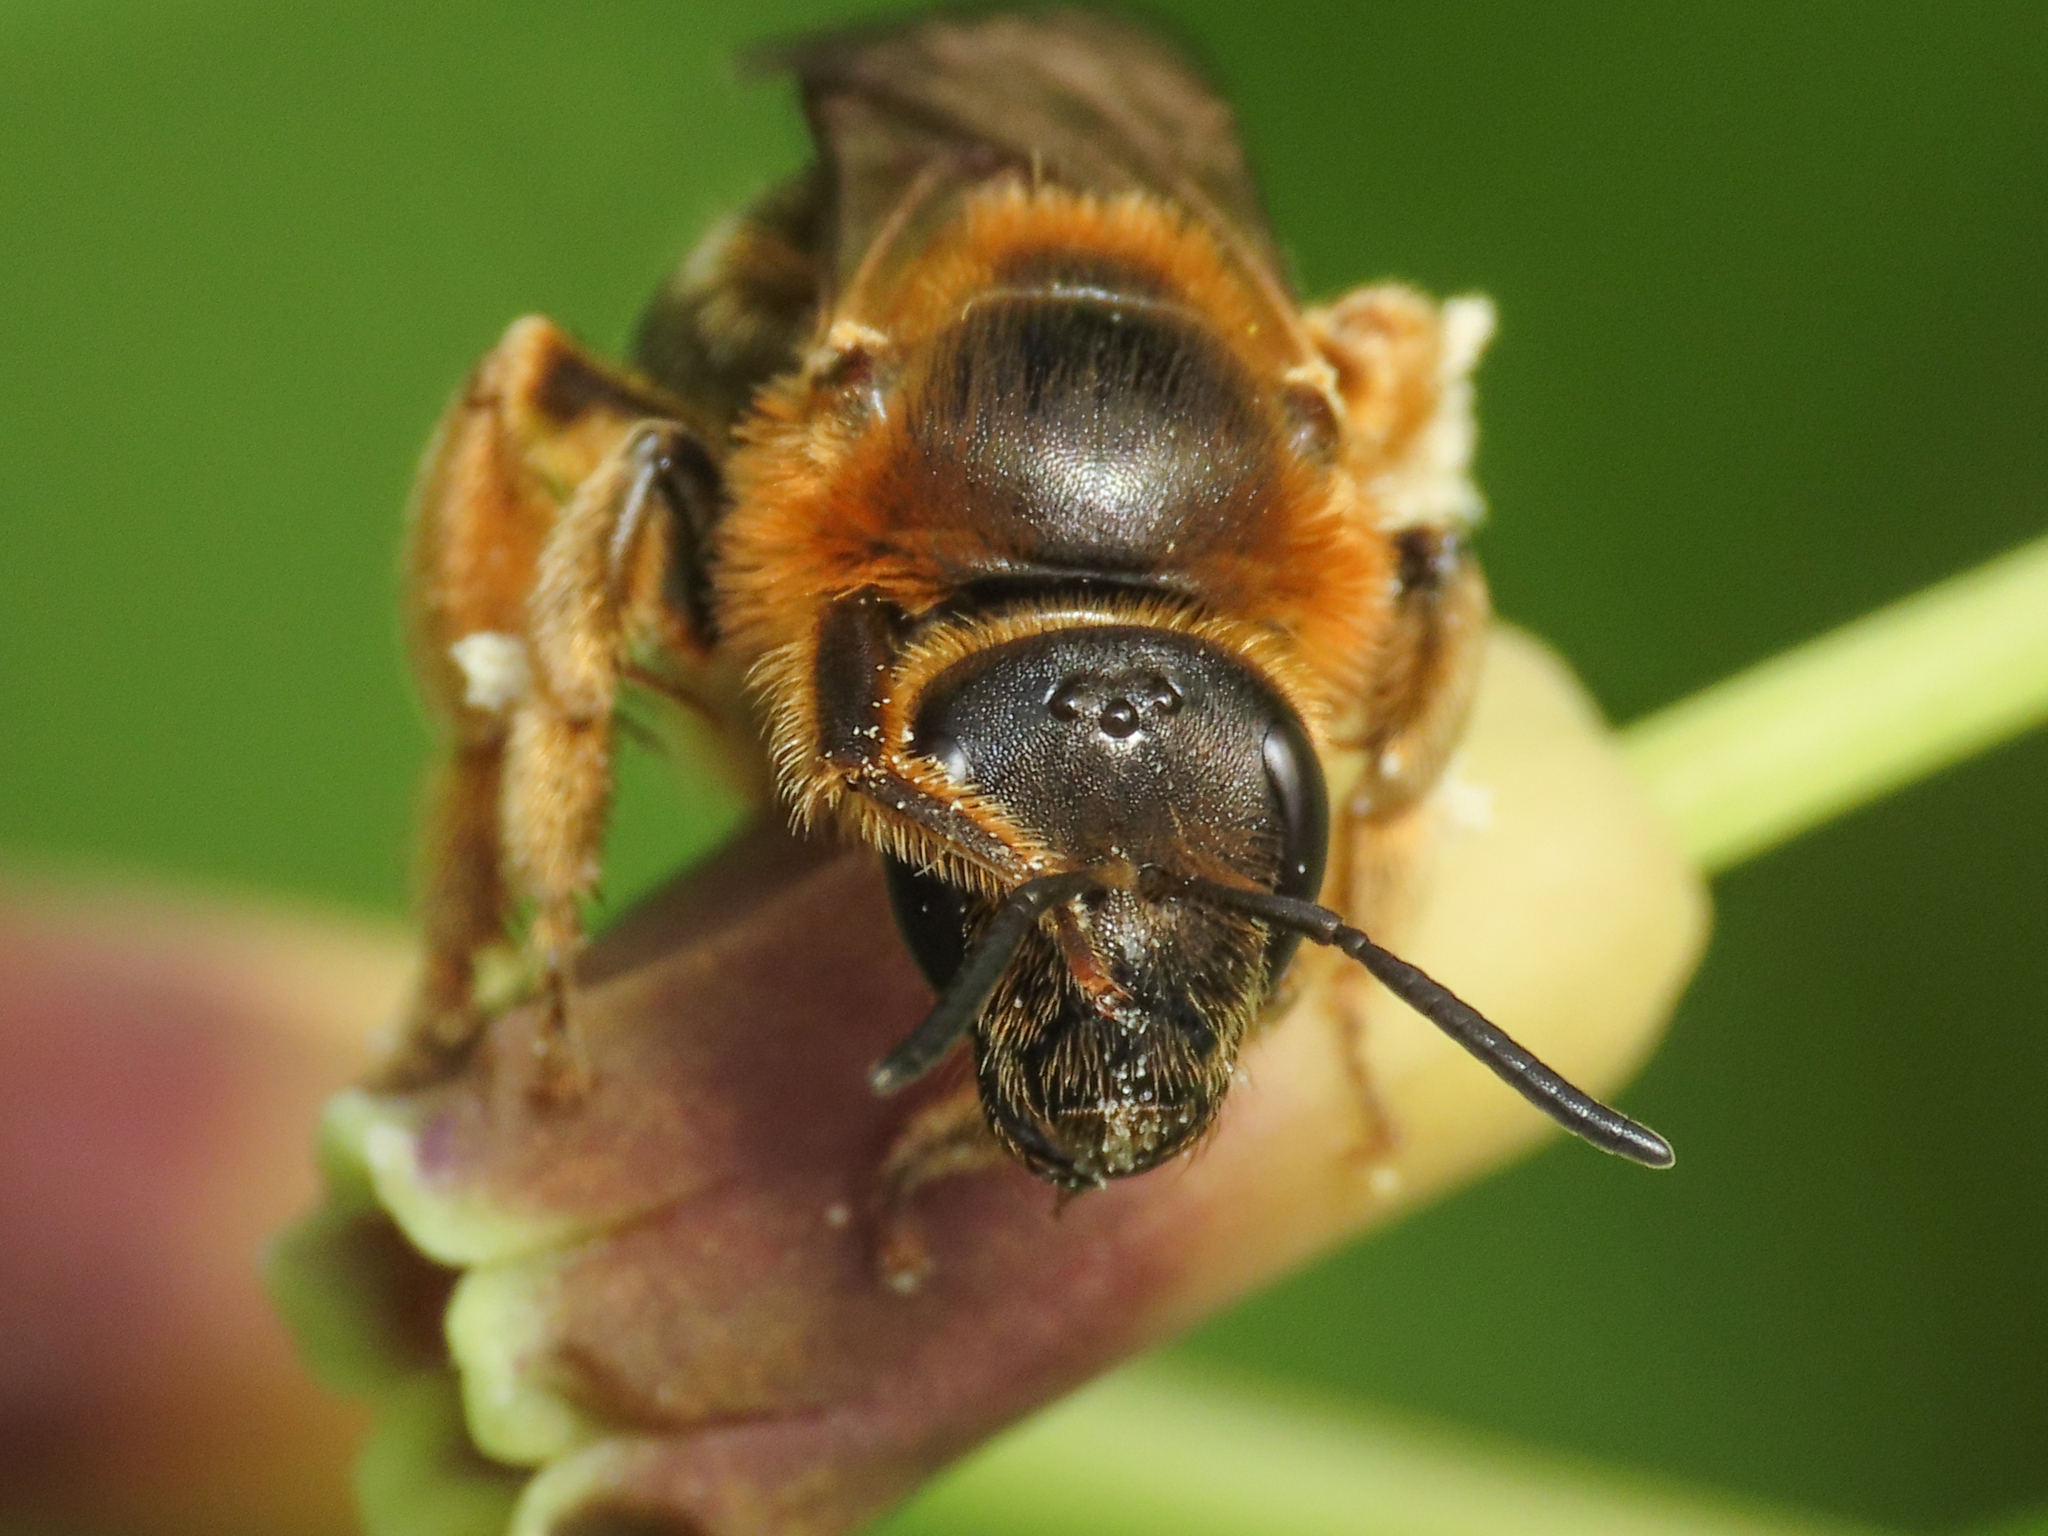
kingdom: Animalia
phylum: Arthropoda
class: Insecta
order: Hymenoptera
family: Halictidae
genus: Lasioglossum
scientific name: Lasioglossum xanthopus
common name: Orange-footed furrow bee
